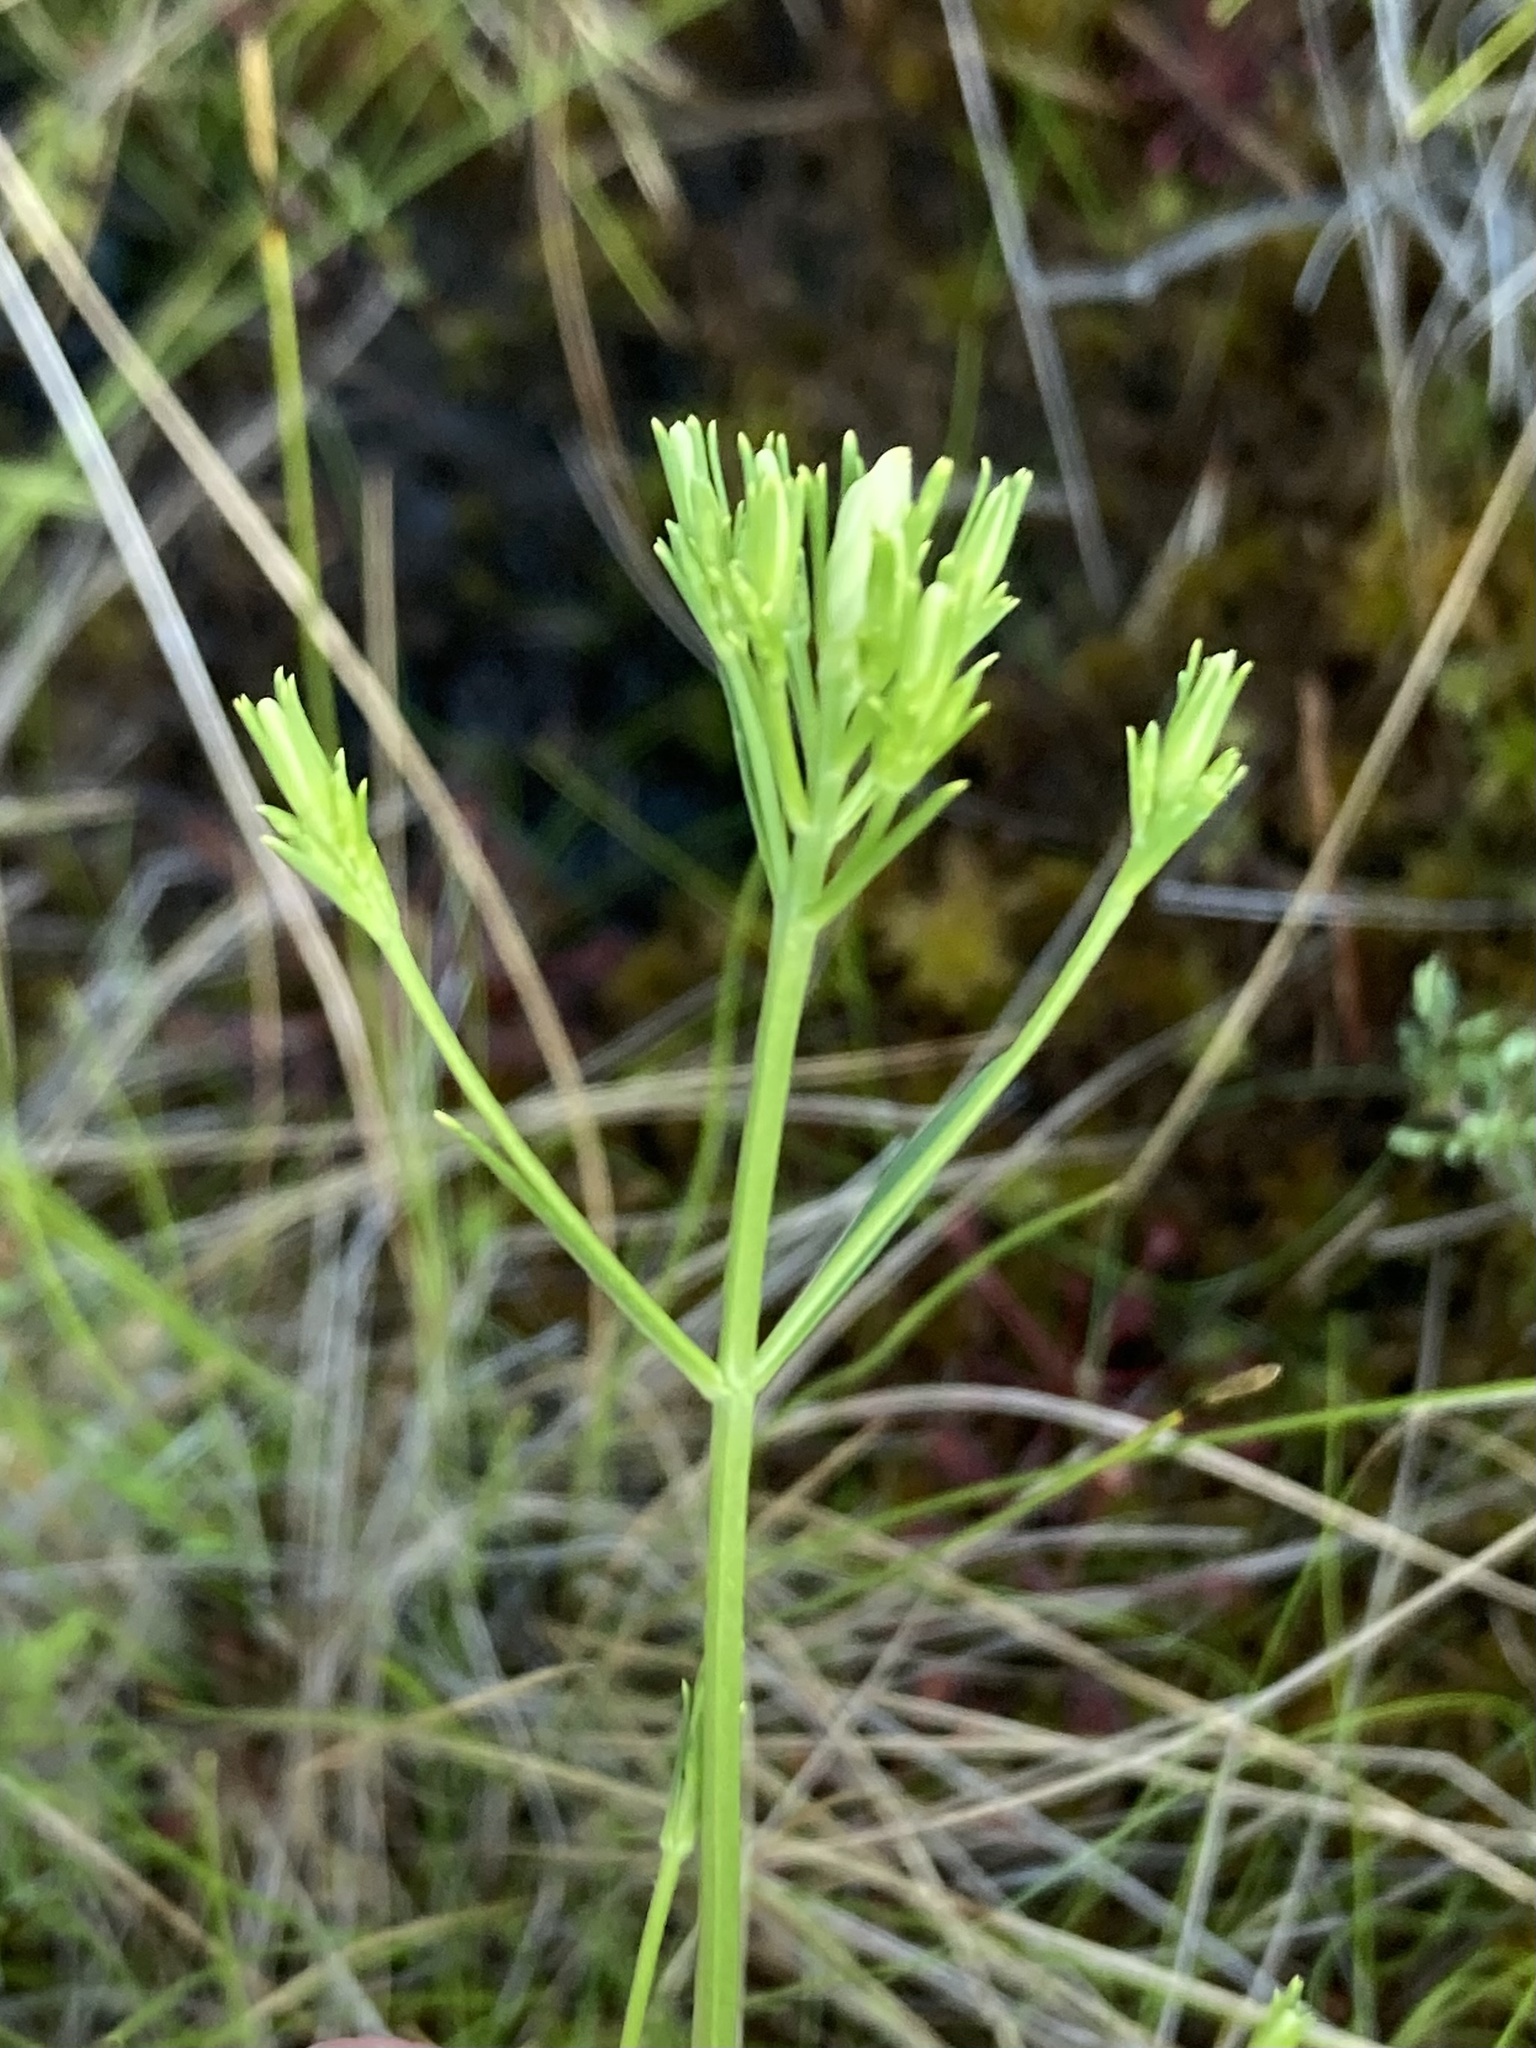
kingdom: Plantae
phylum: Tracheophyta
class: Magnoliopsida
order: Gentianales
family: Gentianaceae
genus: Sabatia
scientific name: Sabatia difformis
